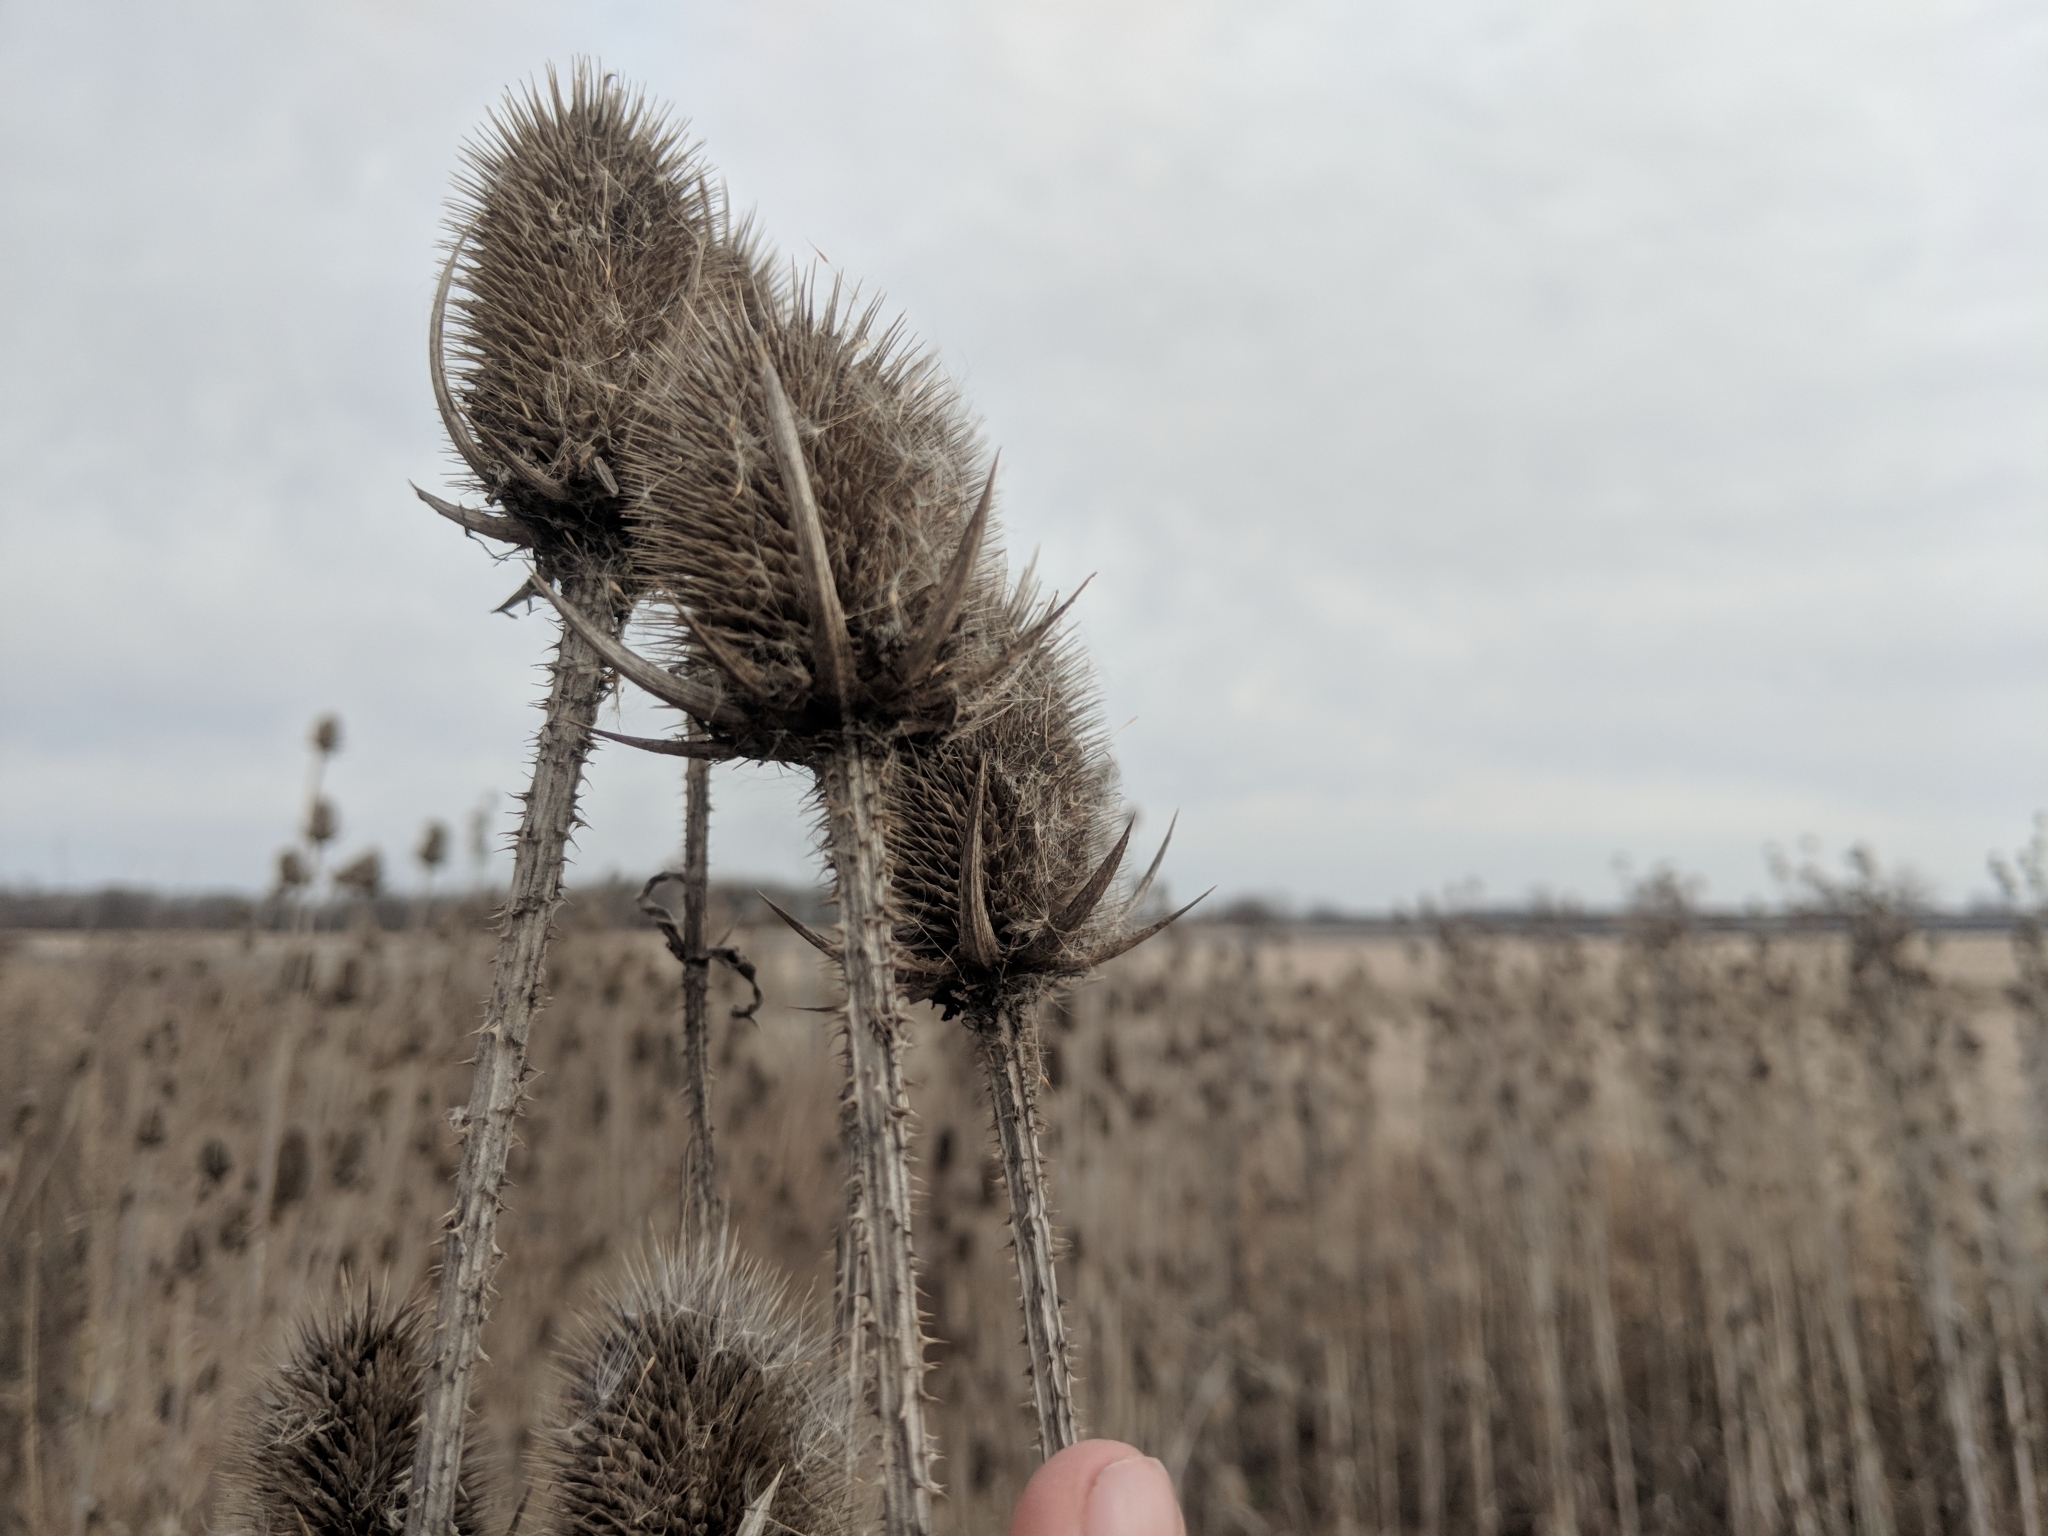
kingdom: Plantae
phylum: Tracheophyta
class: Magnoliopsida
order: Dipsacales
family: Caprifoliaceae
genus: Dipsacus
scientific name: Dipsacus laciniatus
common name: Cut-leaved teasel
